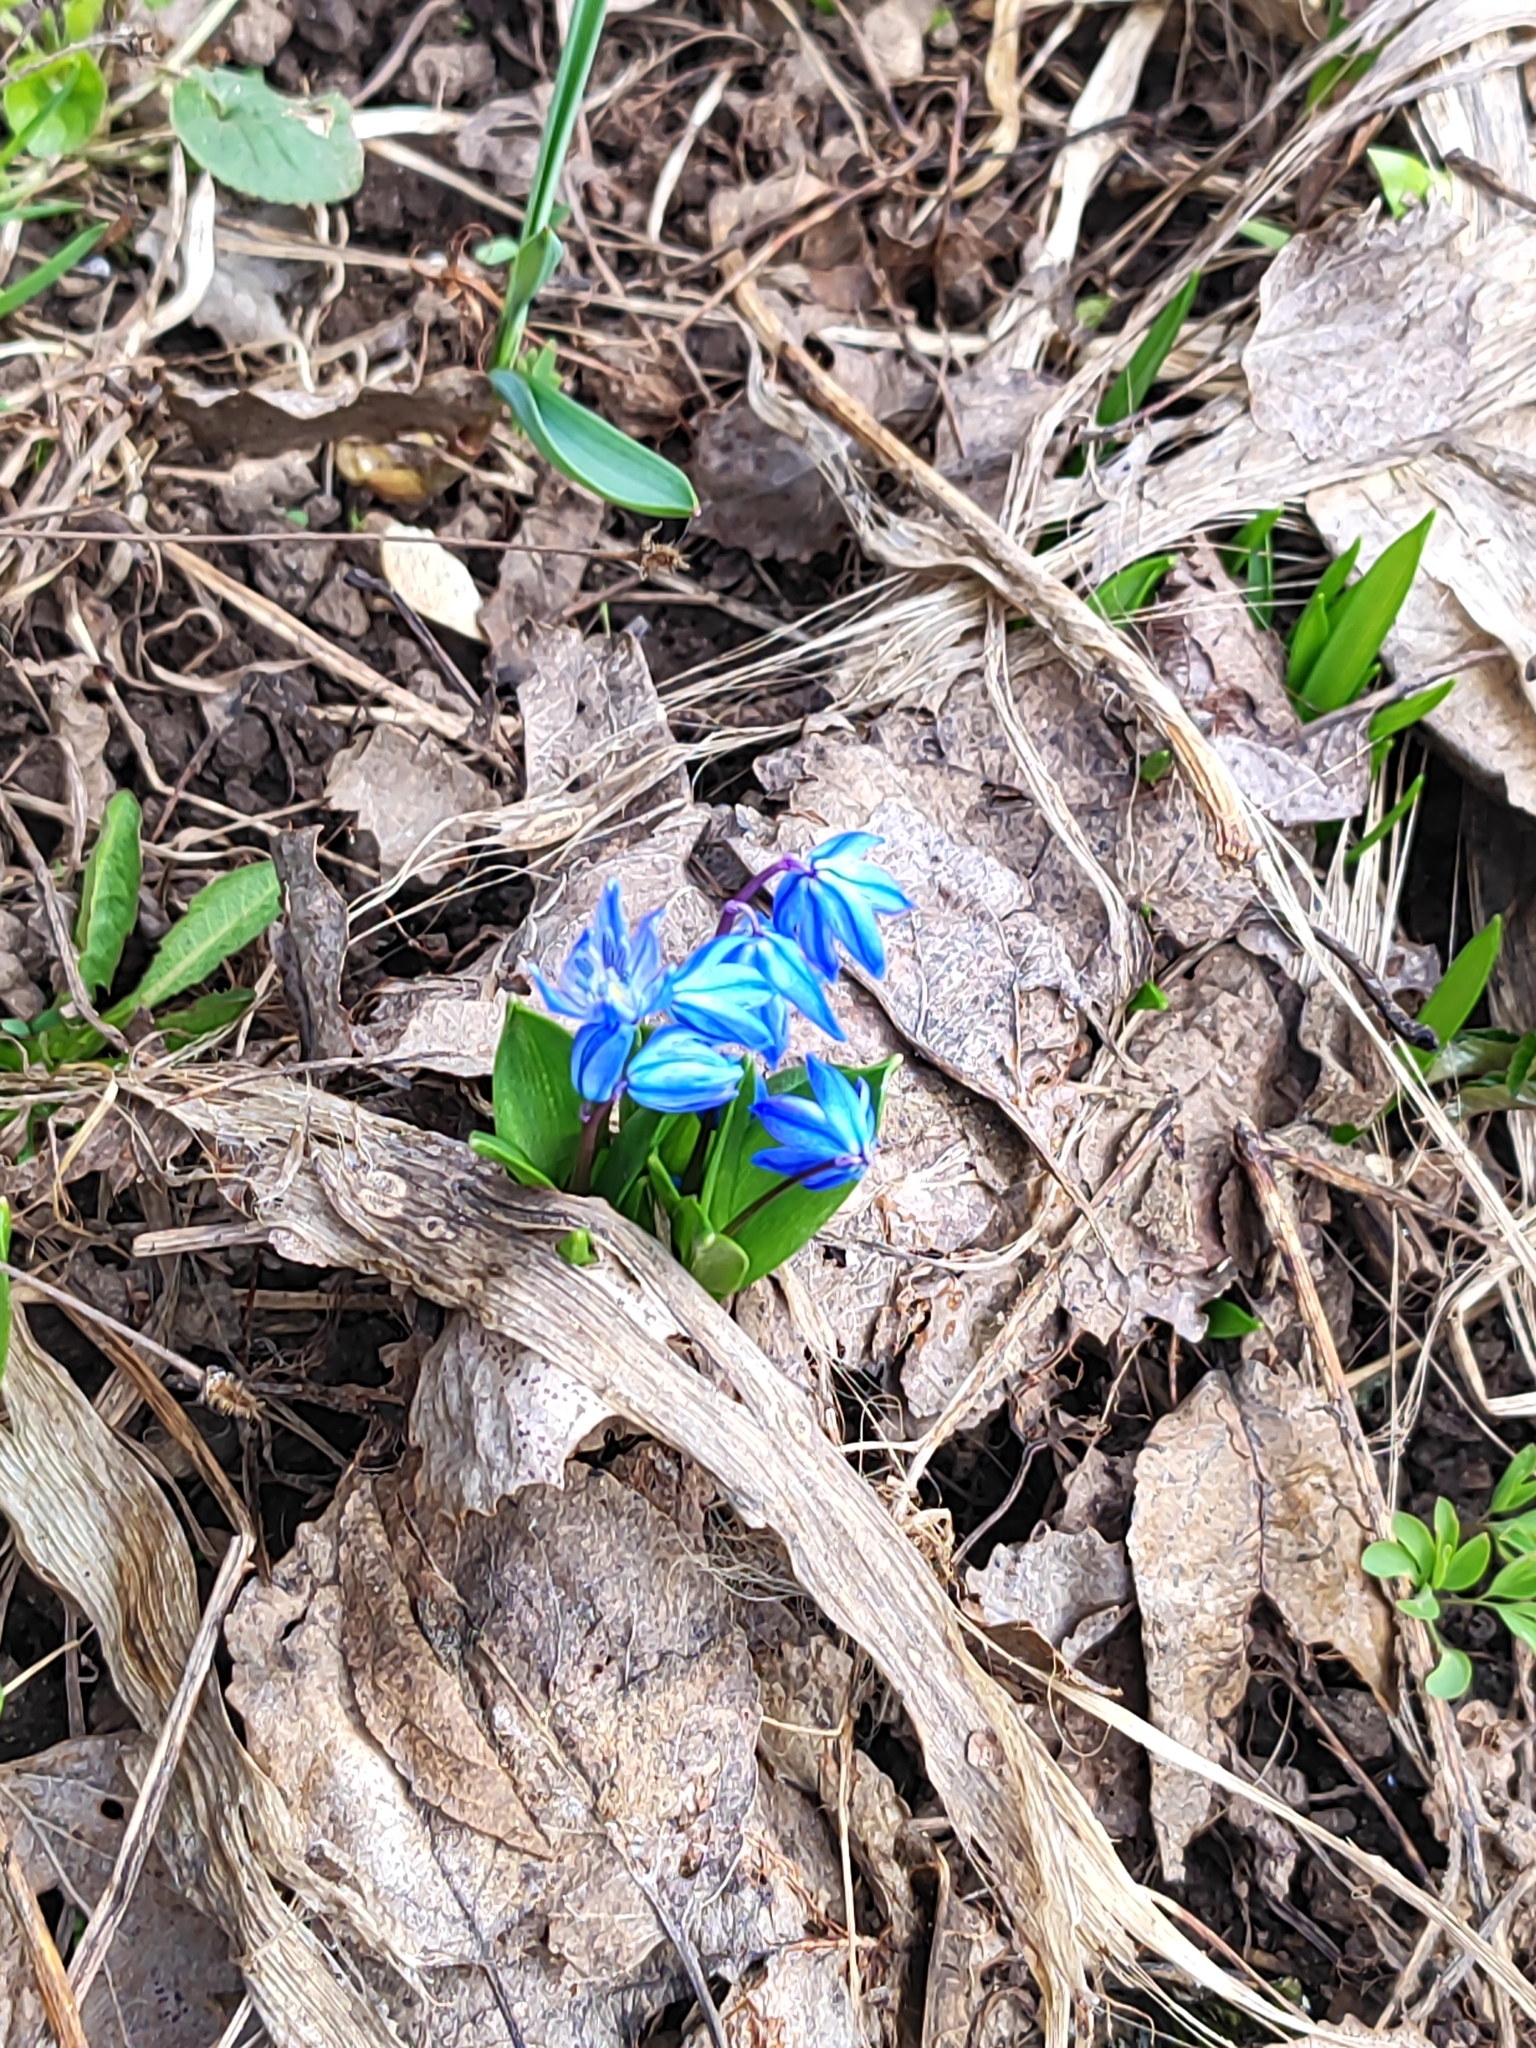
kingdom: Plantae
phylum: Tracheophyta
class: Liliopsida
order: Asparagales
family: Asparagaceae
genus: Scilla
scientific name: Scilla siberica
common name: Siberian squill
